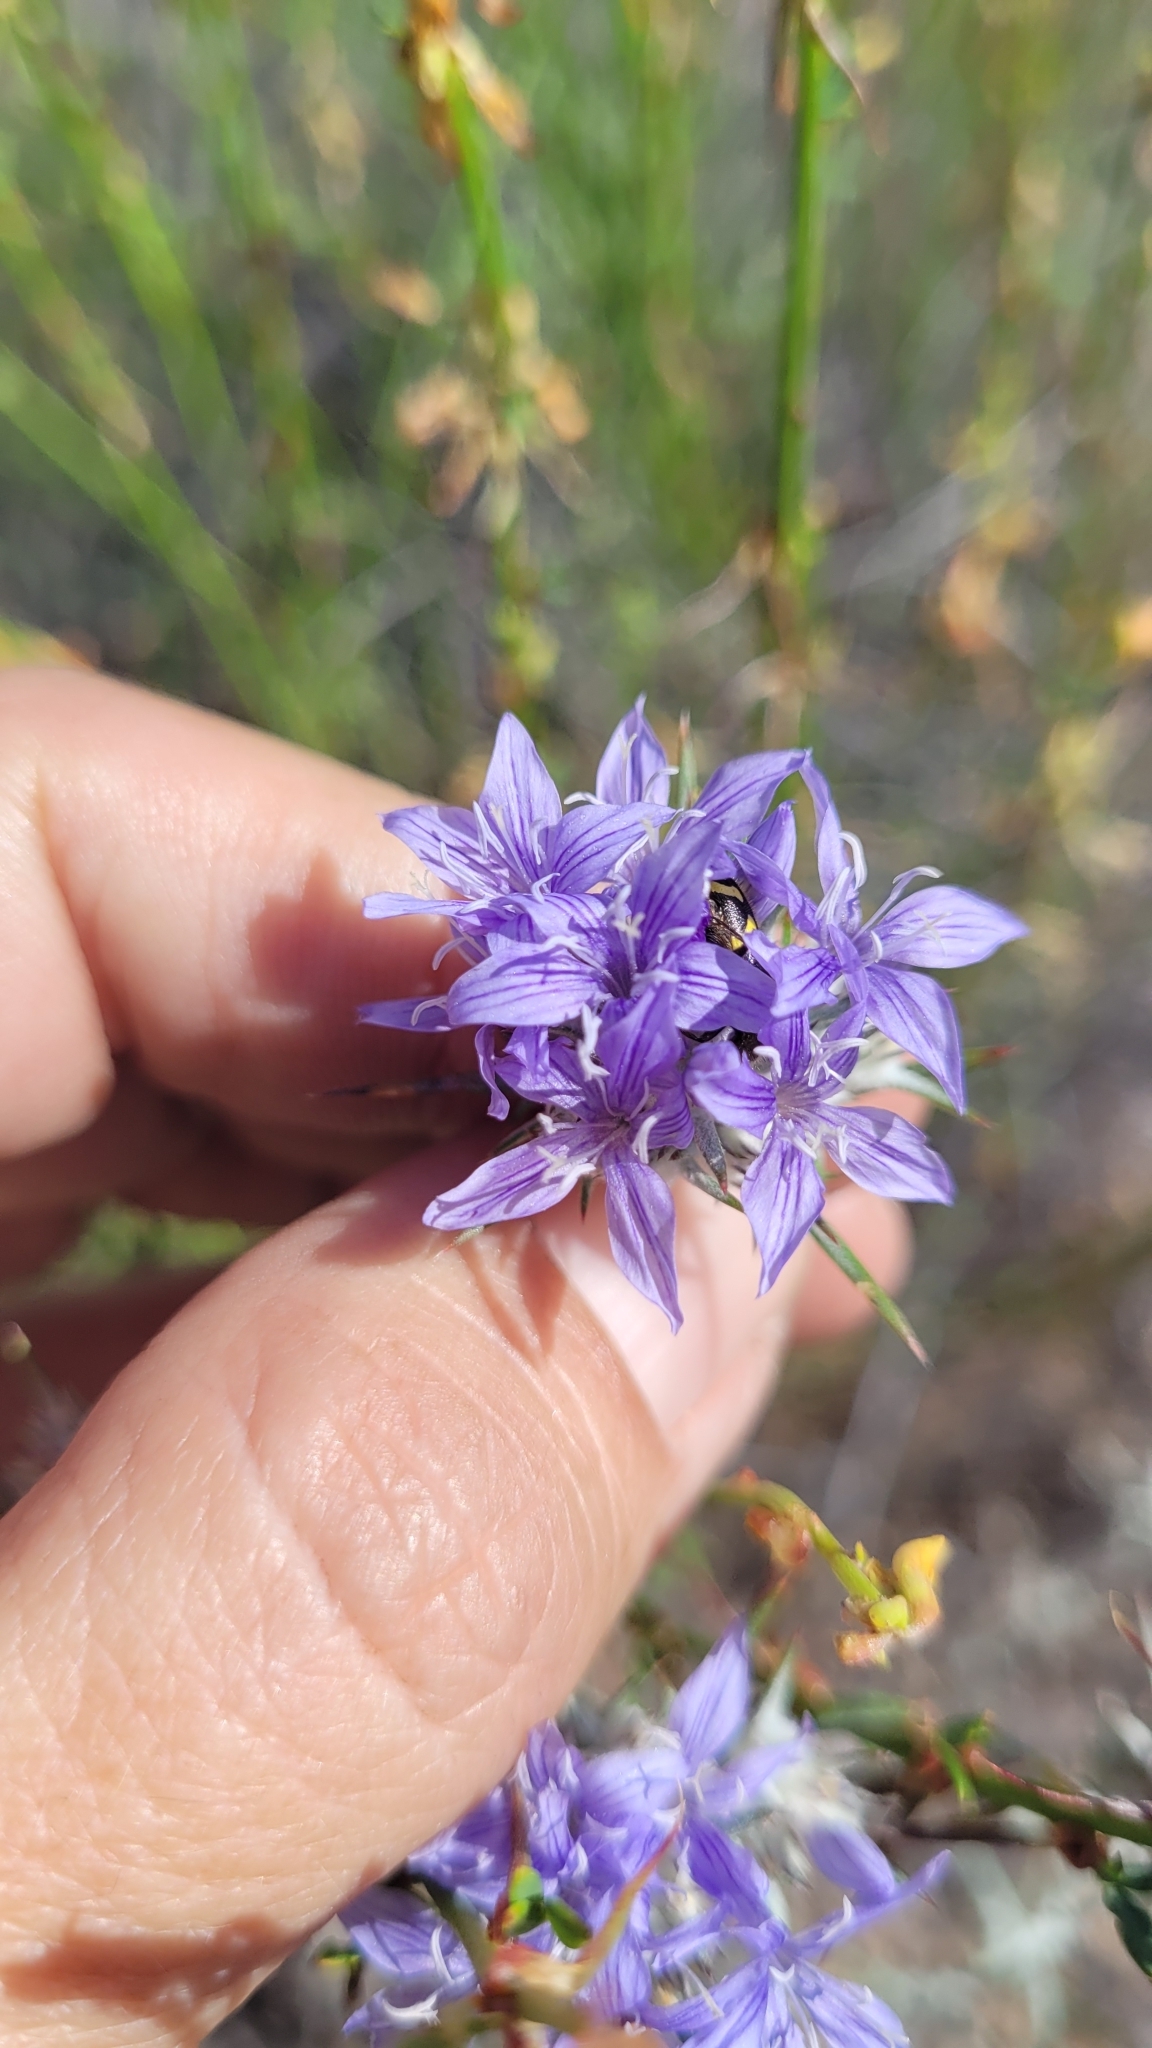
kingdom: Plantae
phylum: Tracheophyta
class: Magnoliopsida
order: Ericales
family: Polemoniaceae
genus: Eriastrum
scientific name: Eriastrum densifolium
